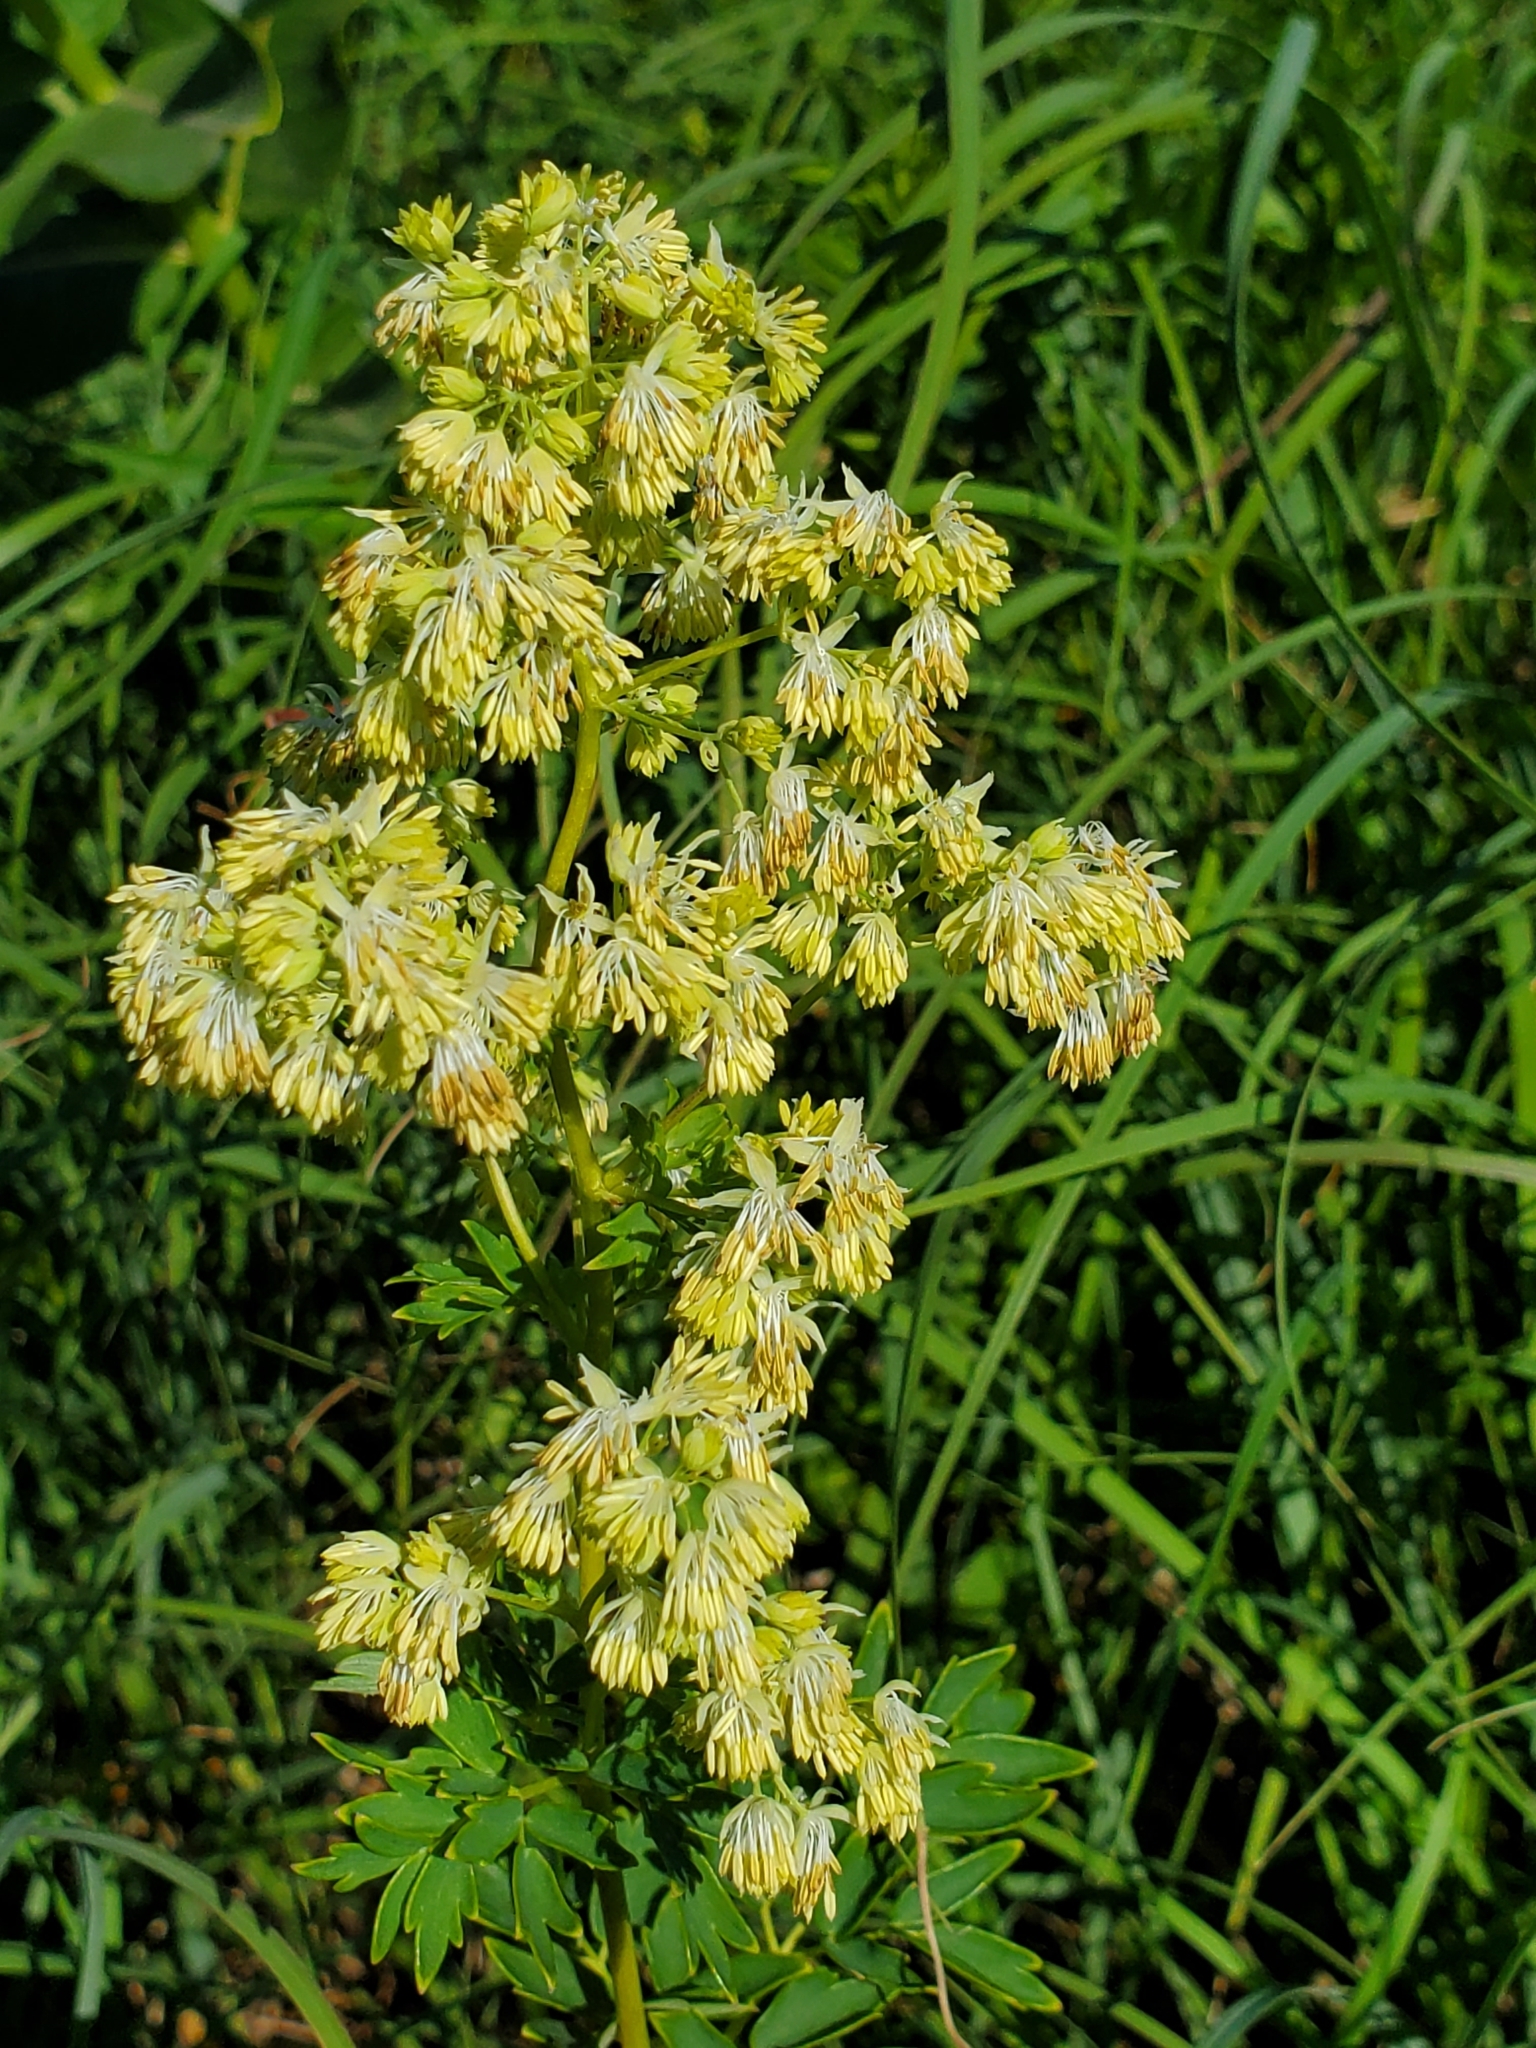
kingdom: Plantae
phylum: Tracheophyta
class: Magnoliopsida
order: Ranunculales
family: Ranunculaceae
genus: Thalictrum
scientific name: Thalictrum revolutum
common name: Waxy meadow-rue
